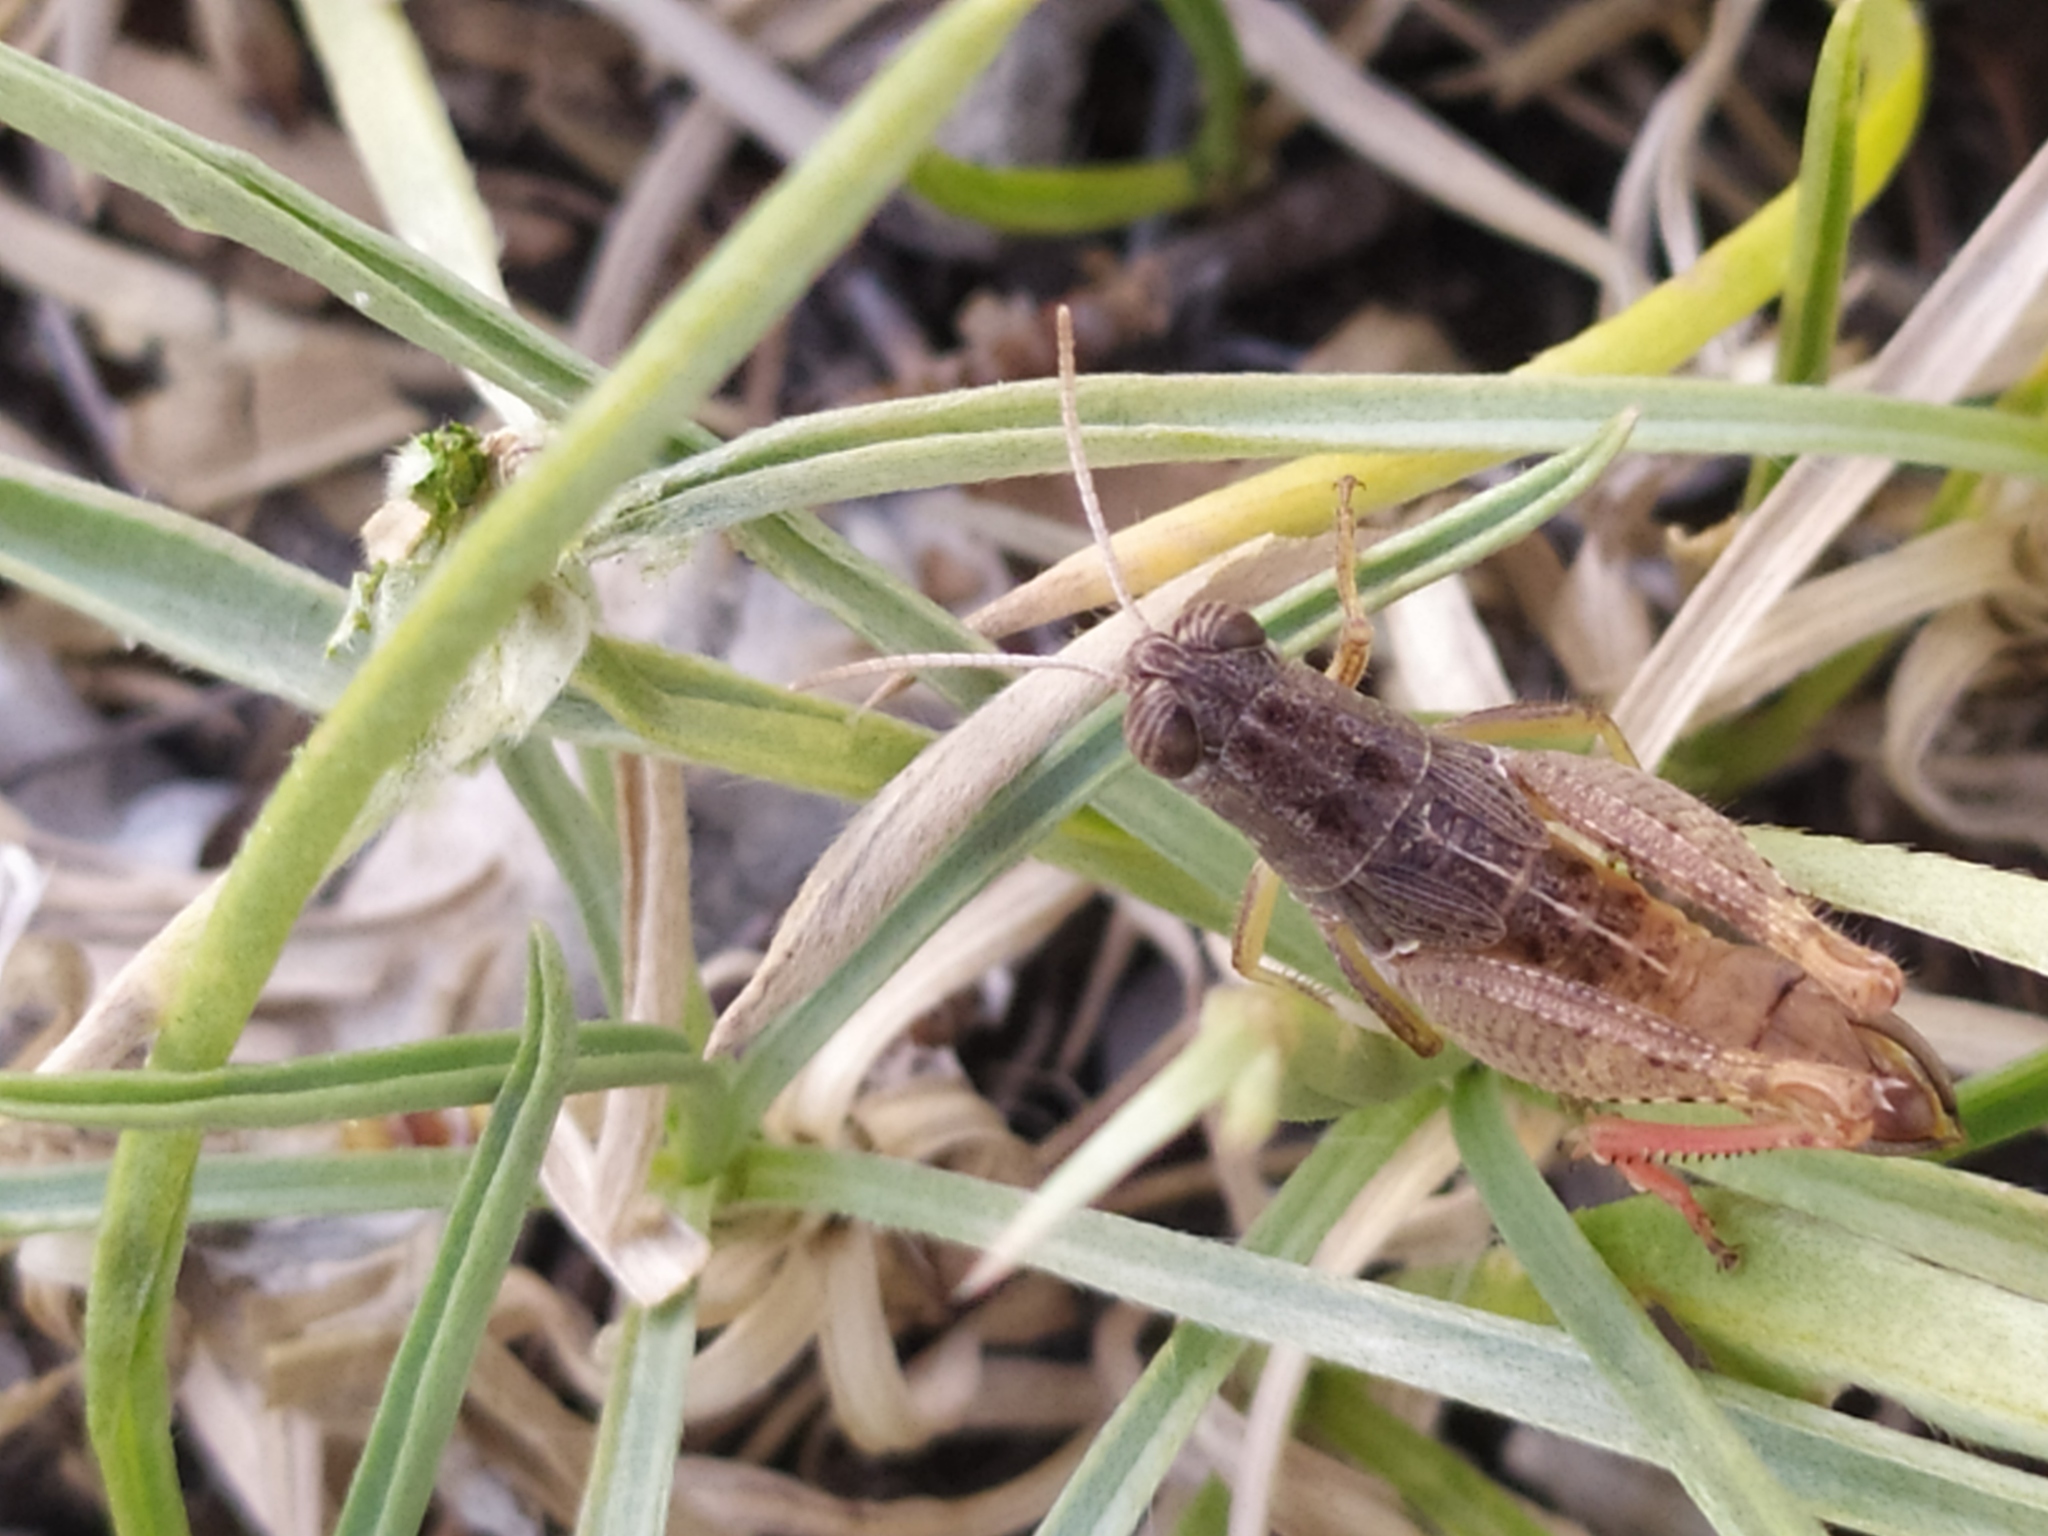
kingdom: Animalia
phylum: Arthropoda
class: Insecta
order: Orthoptera
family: Acrididae
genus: Paracaloptenus
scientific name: Paracaloptenus cristatus
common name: Istrian pincer grasshopper
